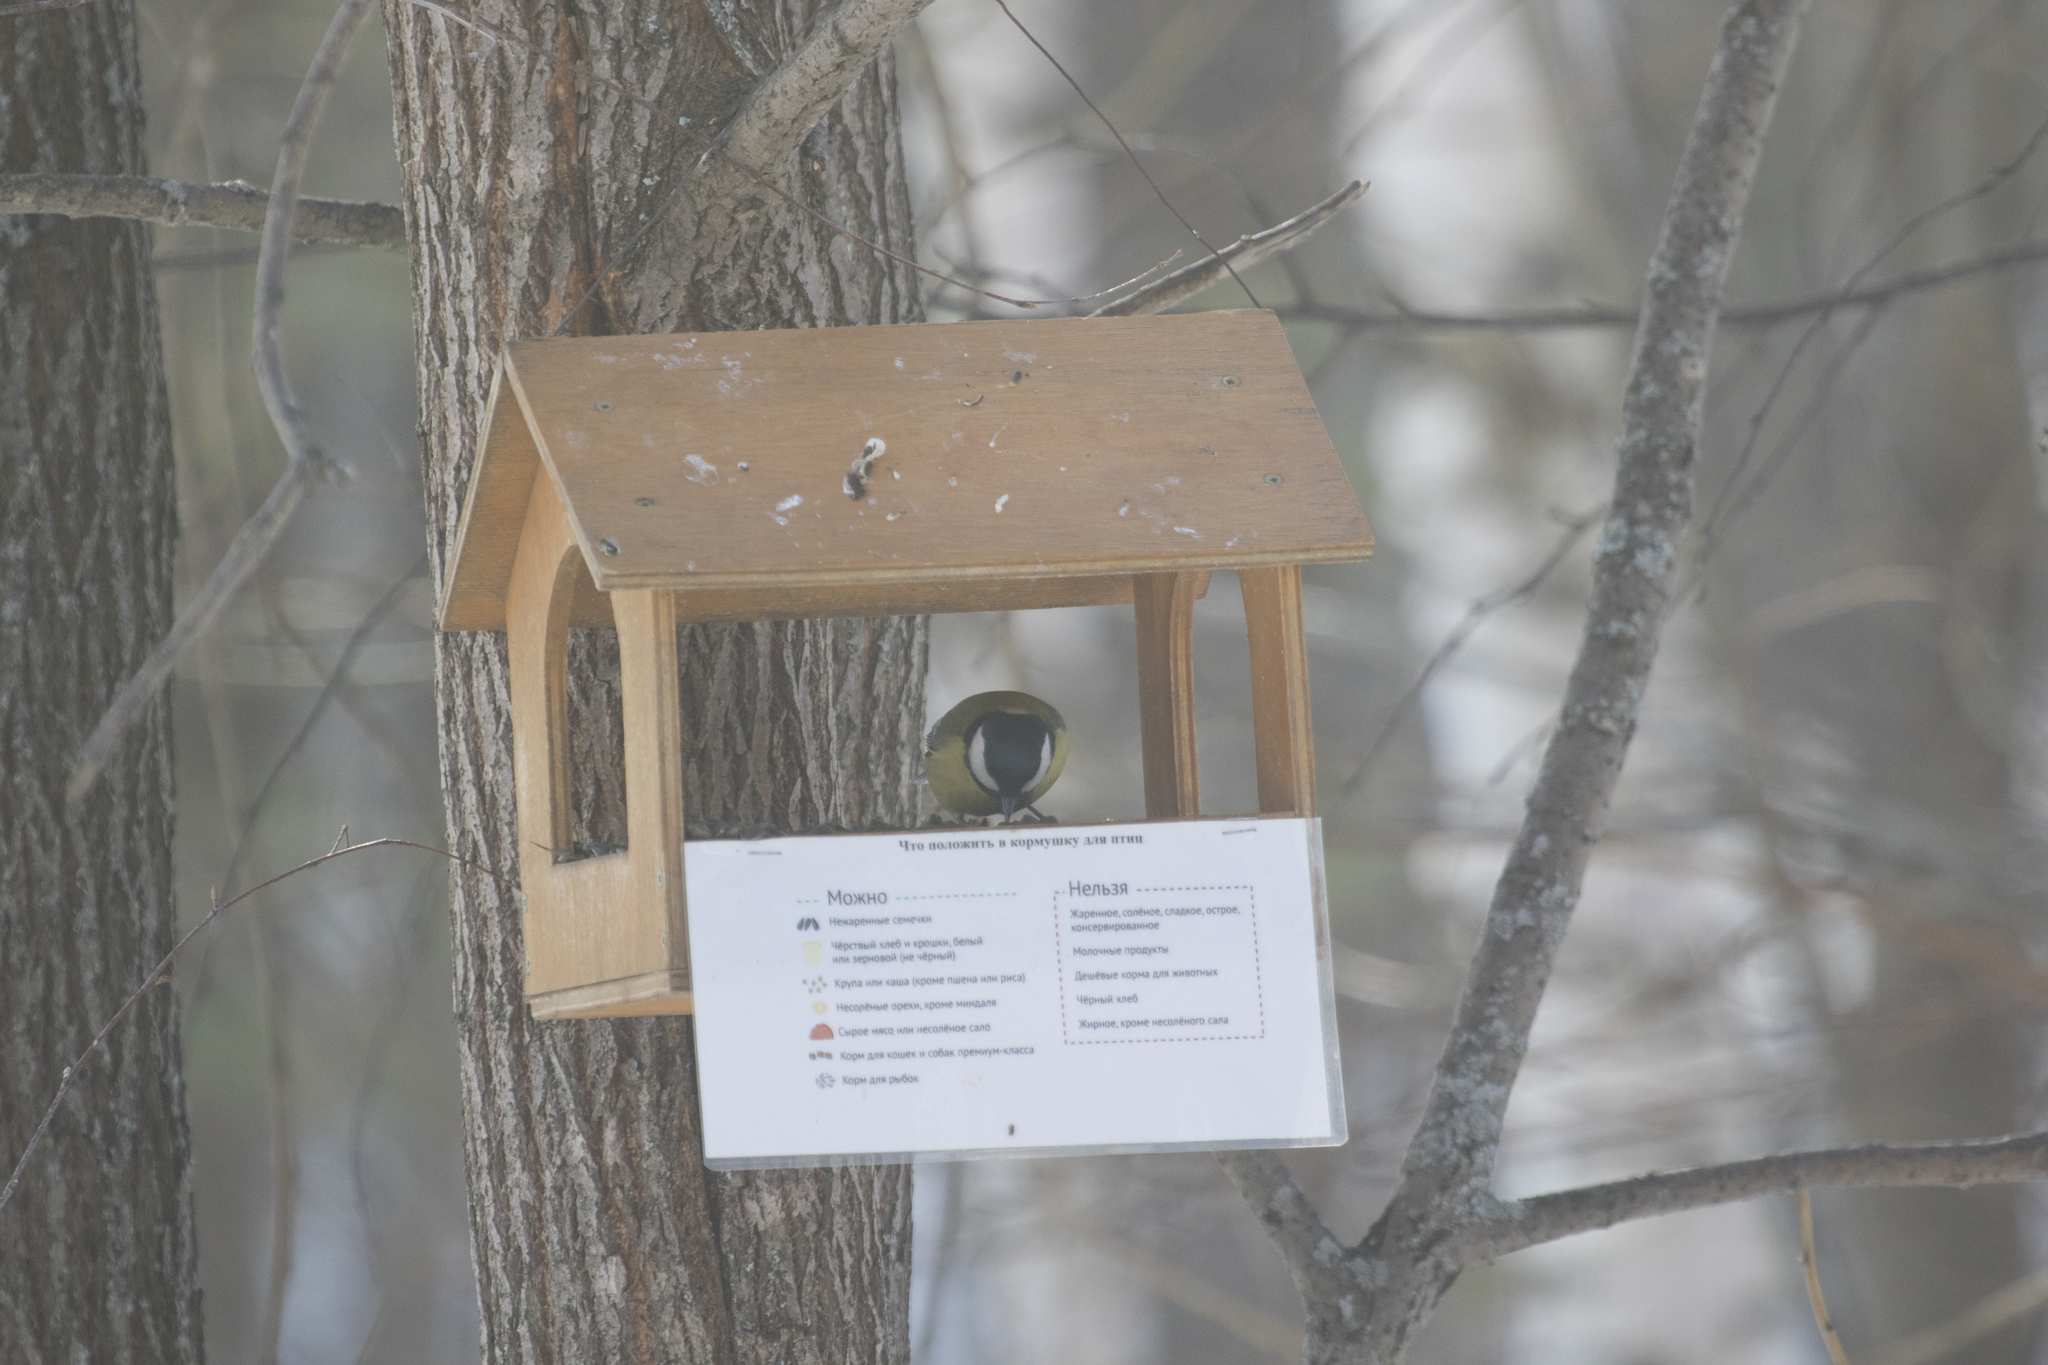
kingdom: Animalia
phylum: Chordata
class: Aves
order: Passeriformes
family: Paridae
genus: Parus
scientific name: Parus major
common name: Great tit
